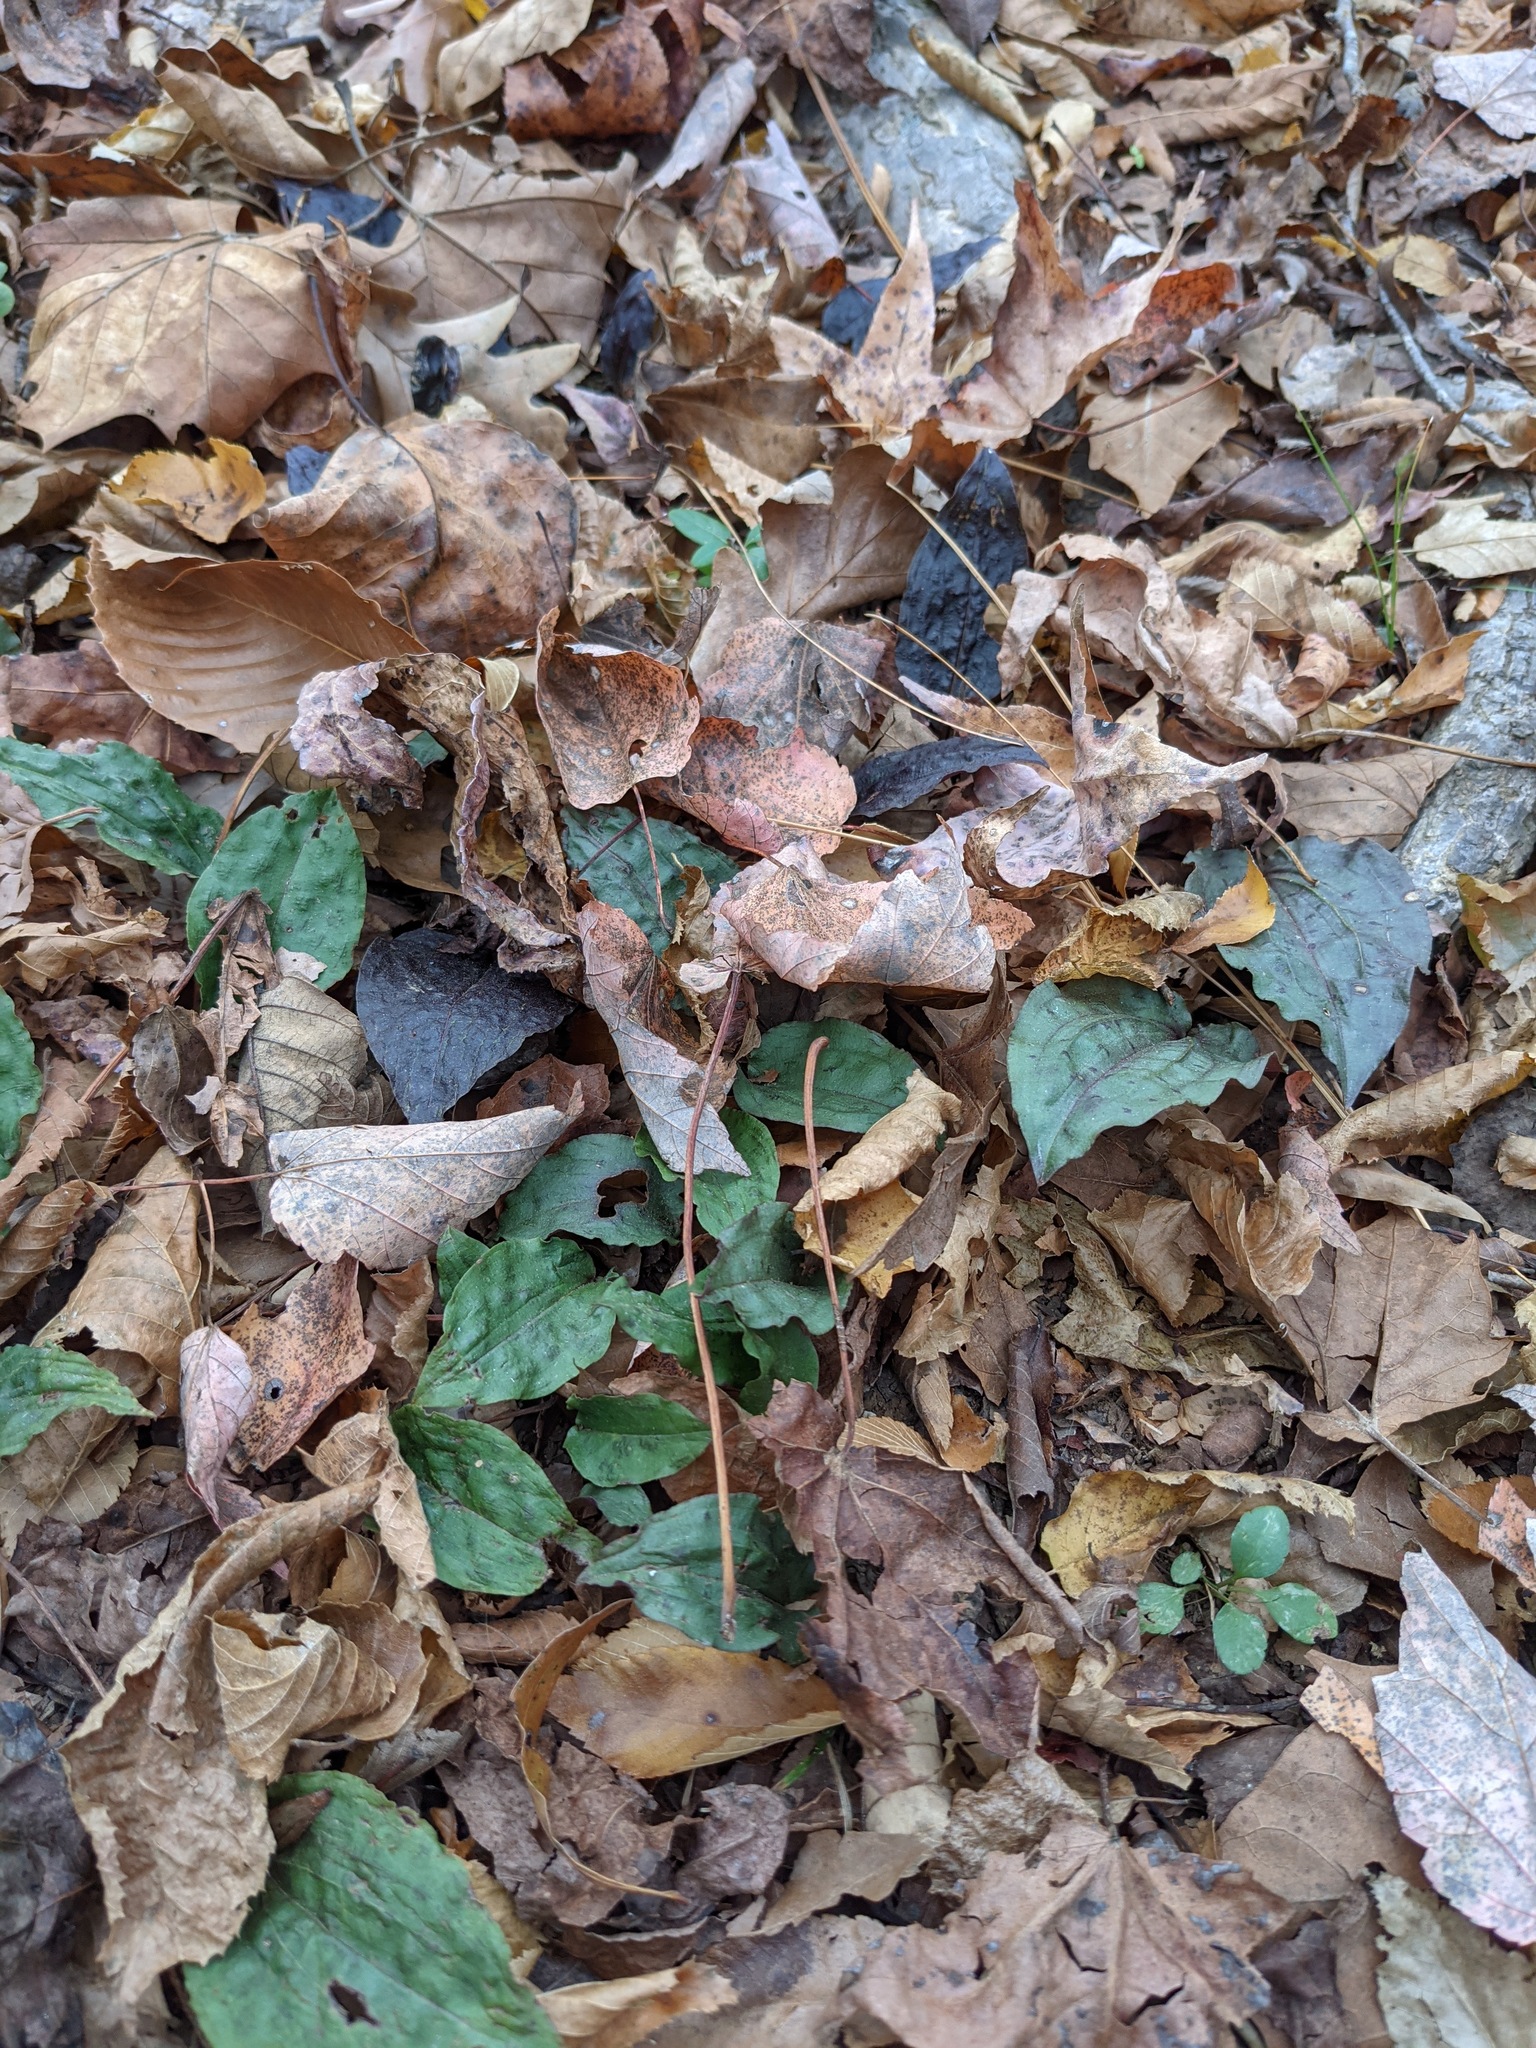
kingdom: Plantae
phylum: Tracheophyta
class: Liliopsida
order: Asparagales
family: Orchidaceae
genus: Tipularia
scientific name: Tipularia discolor
